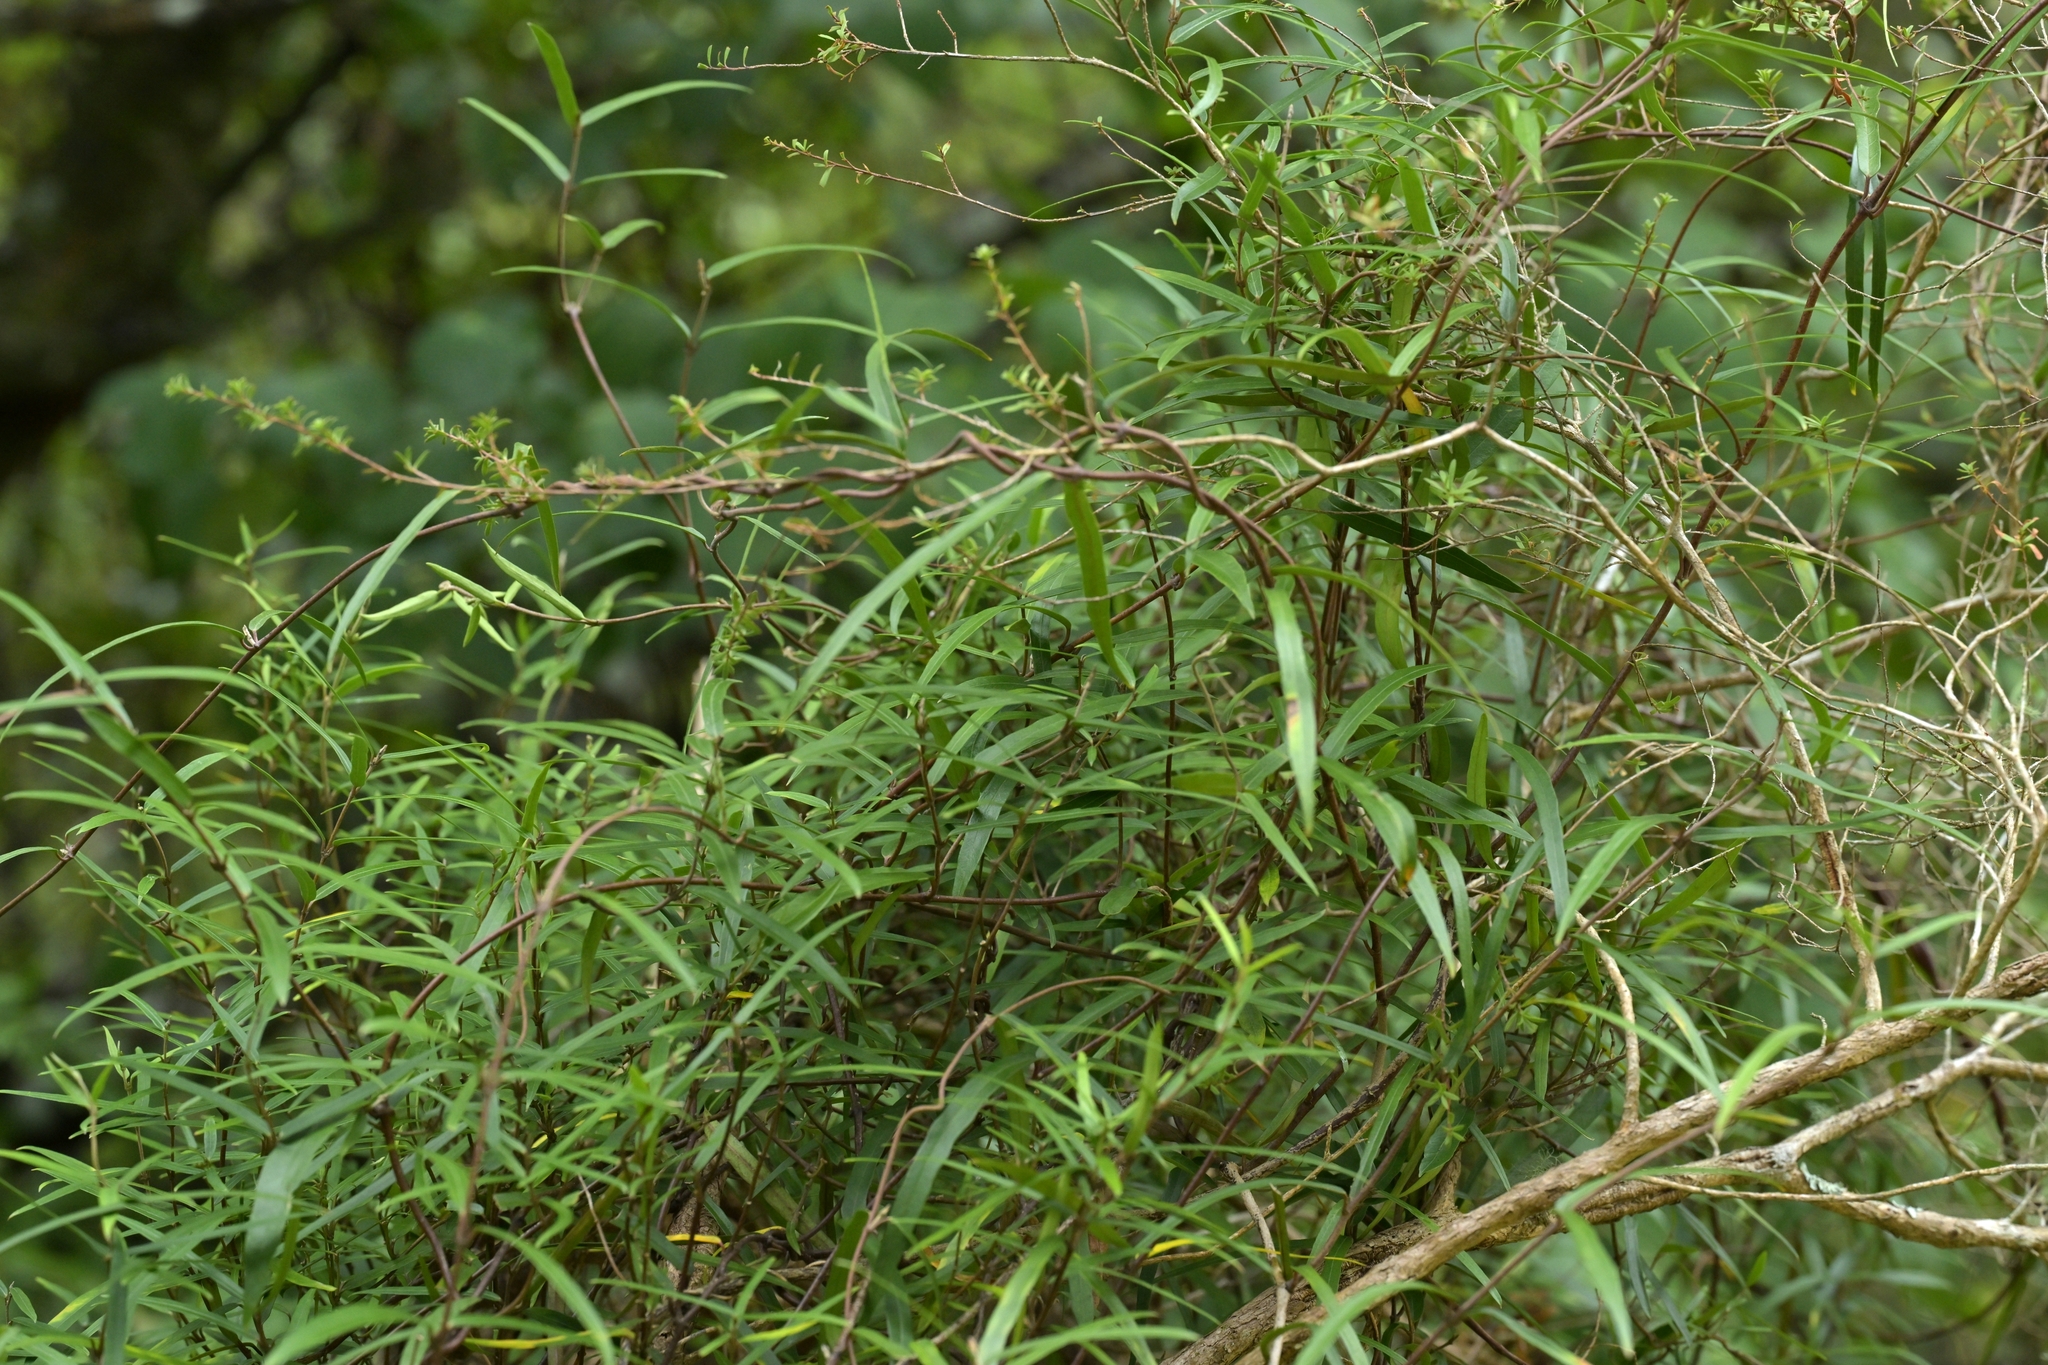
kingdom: Plantae
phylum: Tracheophyta
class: Magnoliopsida
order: Gentianales
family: Apocynaceae
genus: Parsonsia
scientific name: Parsonsia capsularis
